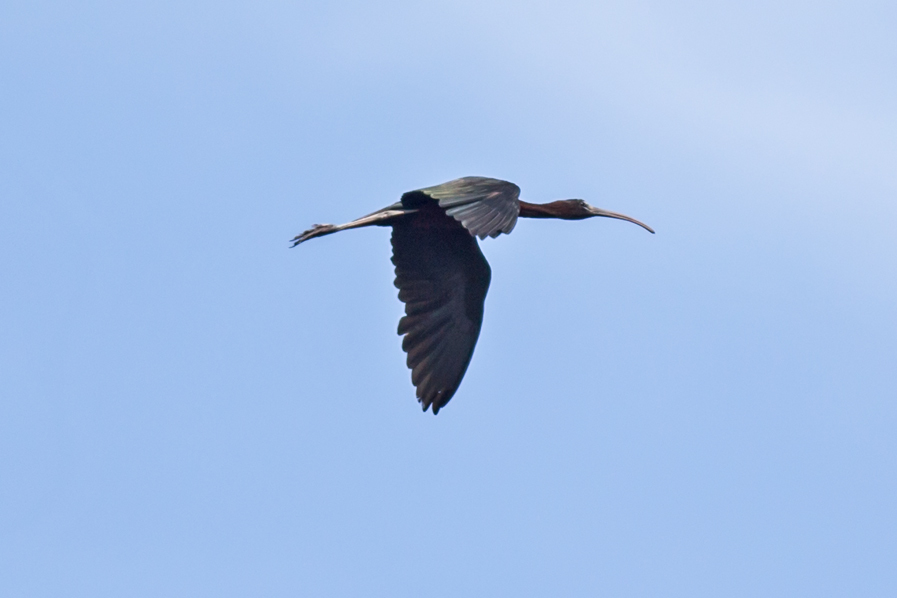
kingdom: Animalia
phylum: Chordata
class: Aves
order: Pelecaniformes
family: Threskiornithidae
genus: Plegadis
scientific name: Plegadis falcinellus
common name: Glossy ibis
